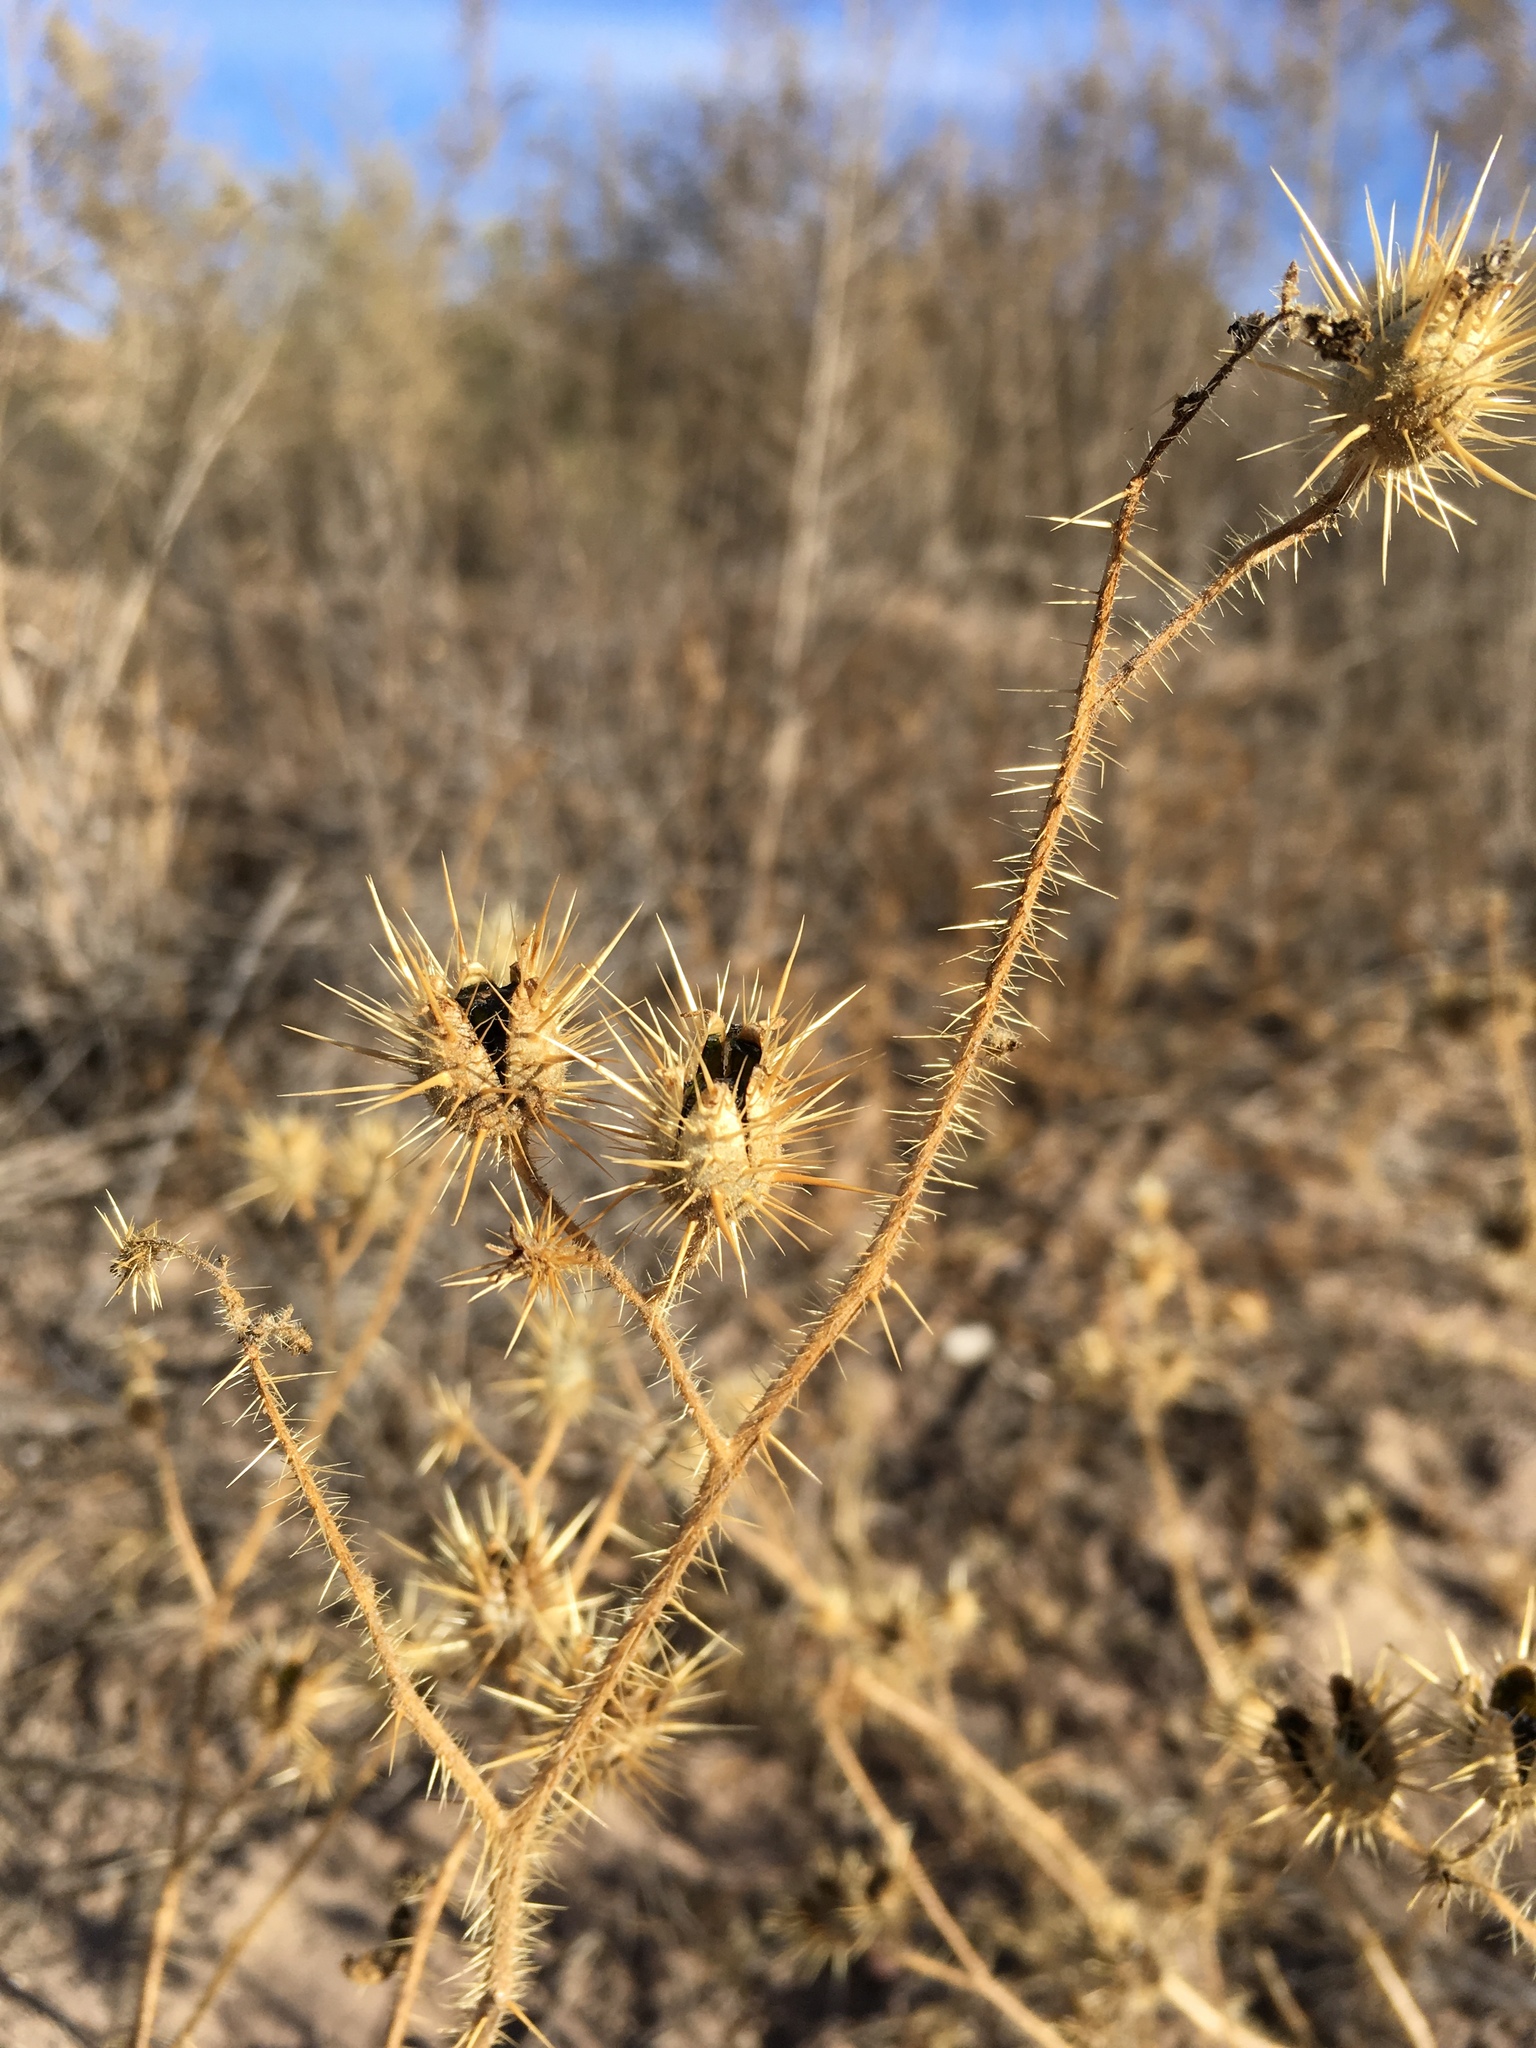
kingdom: Plantae
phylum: Tracheophyta
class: Magnoliopsida
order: Solanales
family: Solanaceae
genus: Solanum
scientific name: Solanum angustifolium
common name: Buffalobur nightshade
